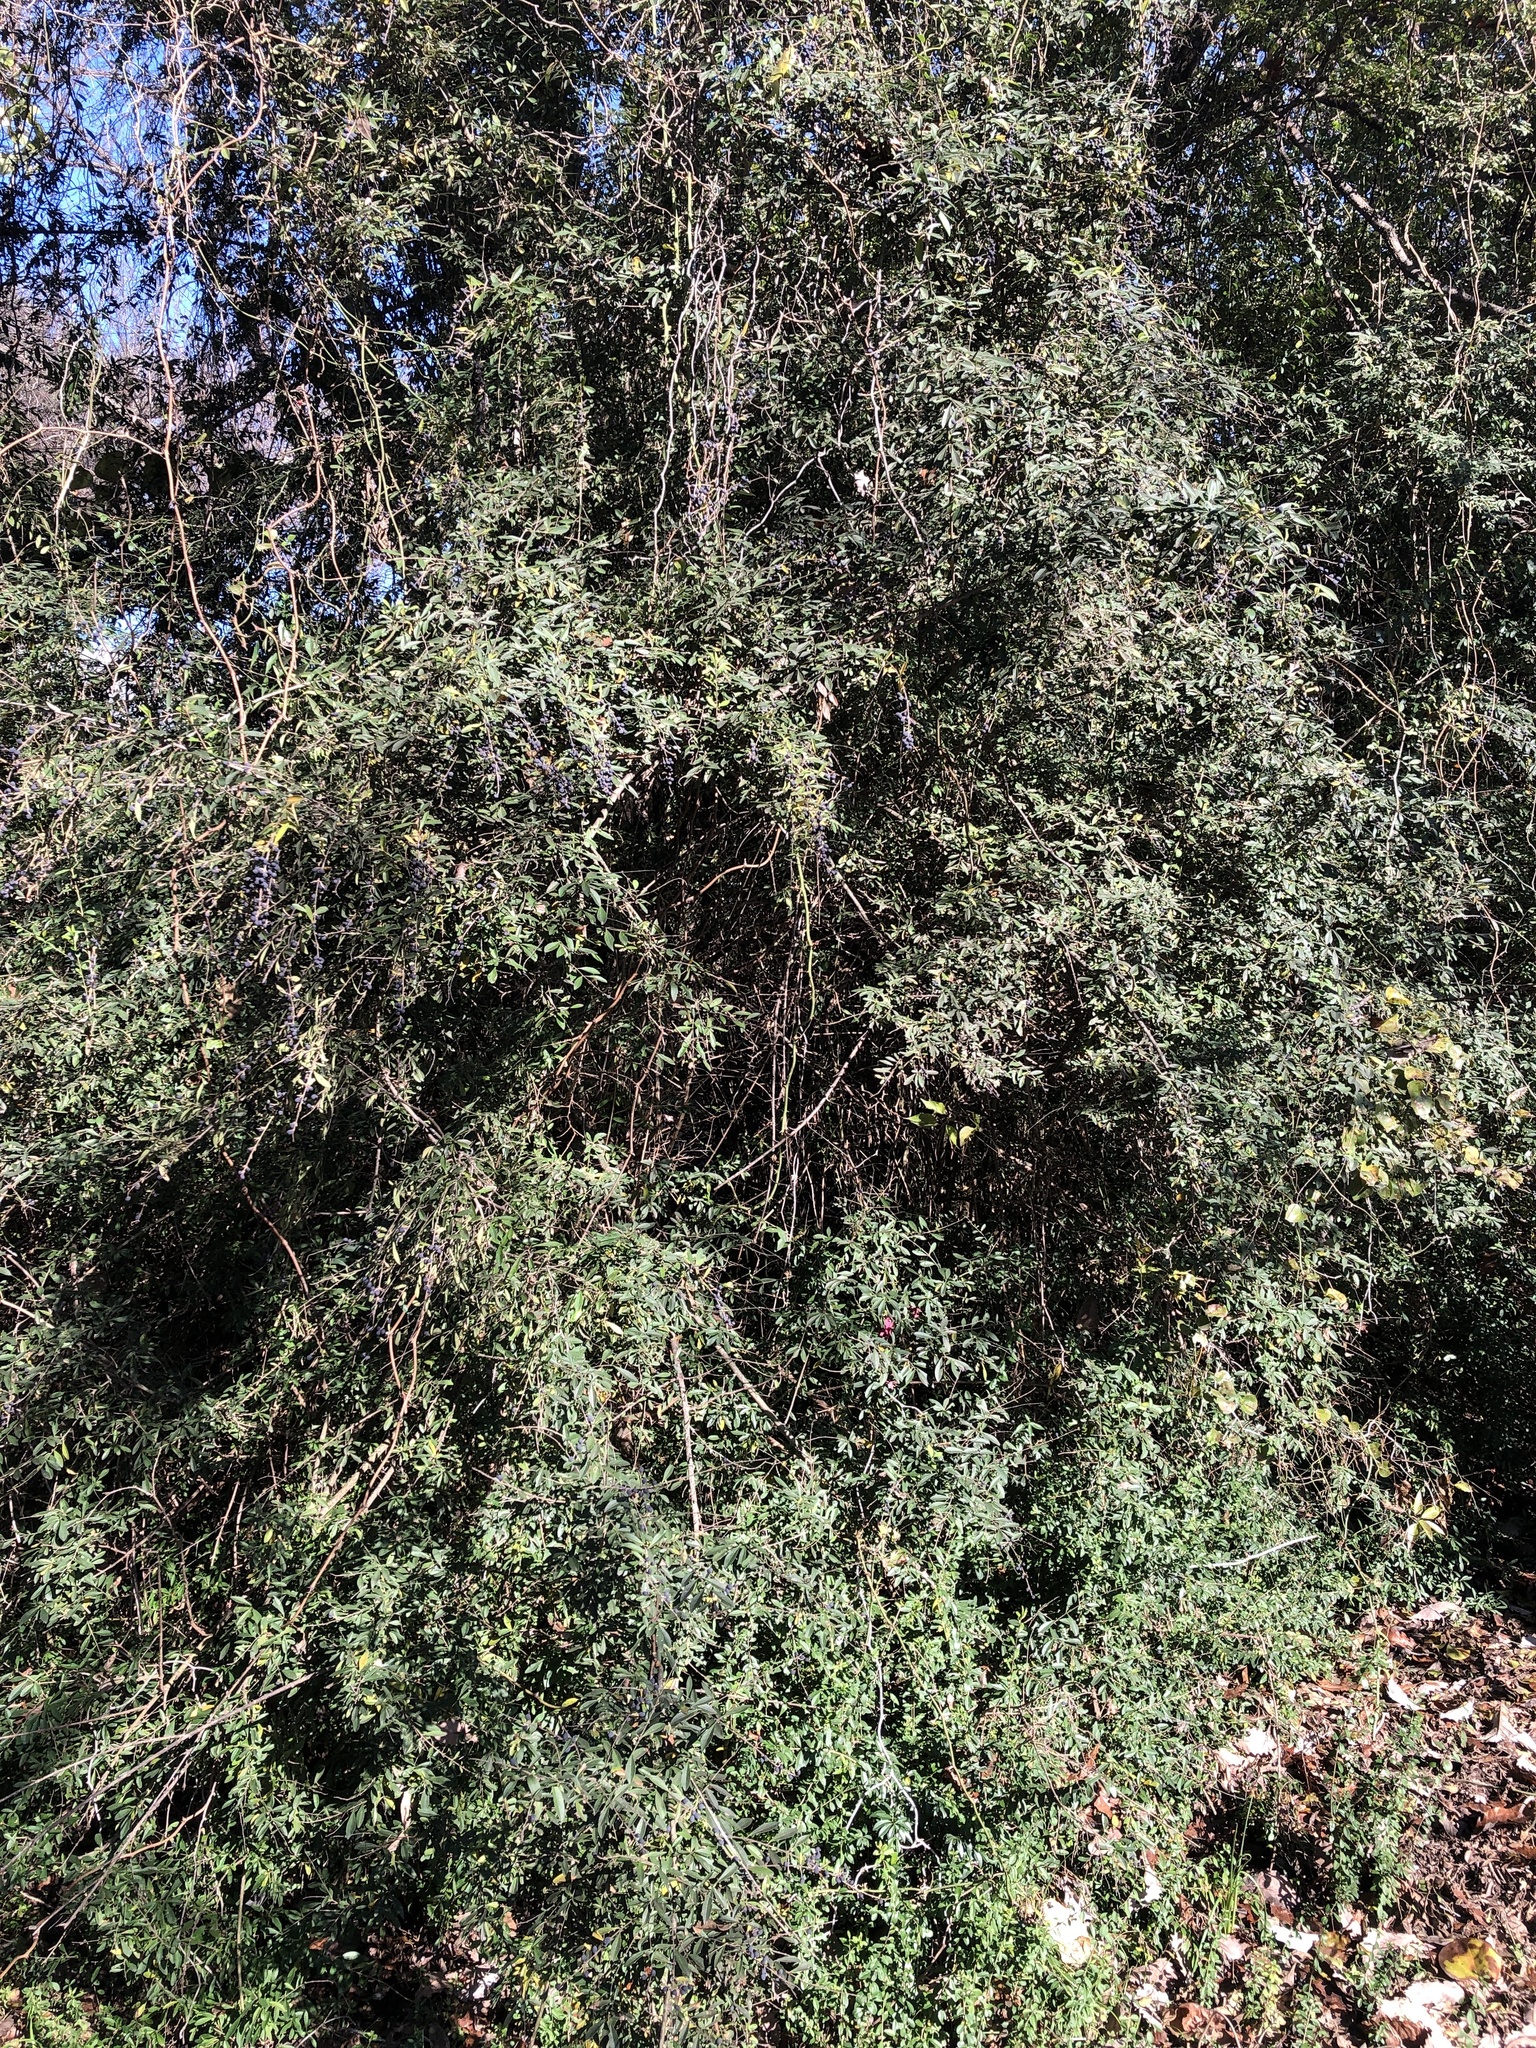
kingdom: Plantae
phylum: Tracheophyta
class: Magnoliopsida
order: Lamiales
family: Oleaceae
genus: Ligustrum
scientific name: Ligustrum quihoui
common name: Waxyleaf privet
